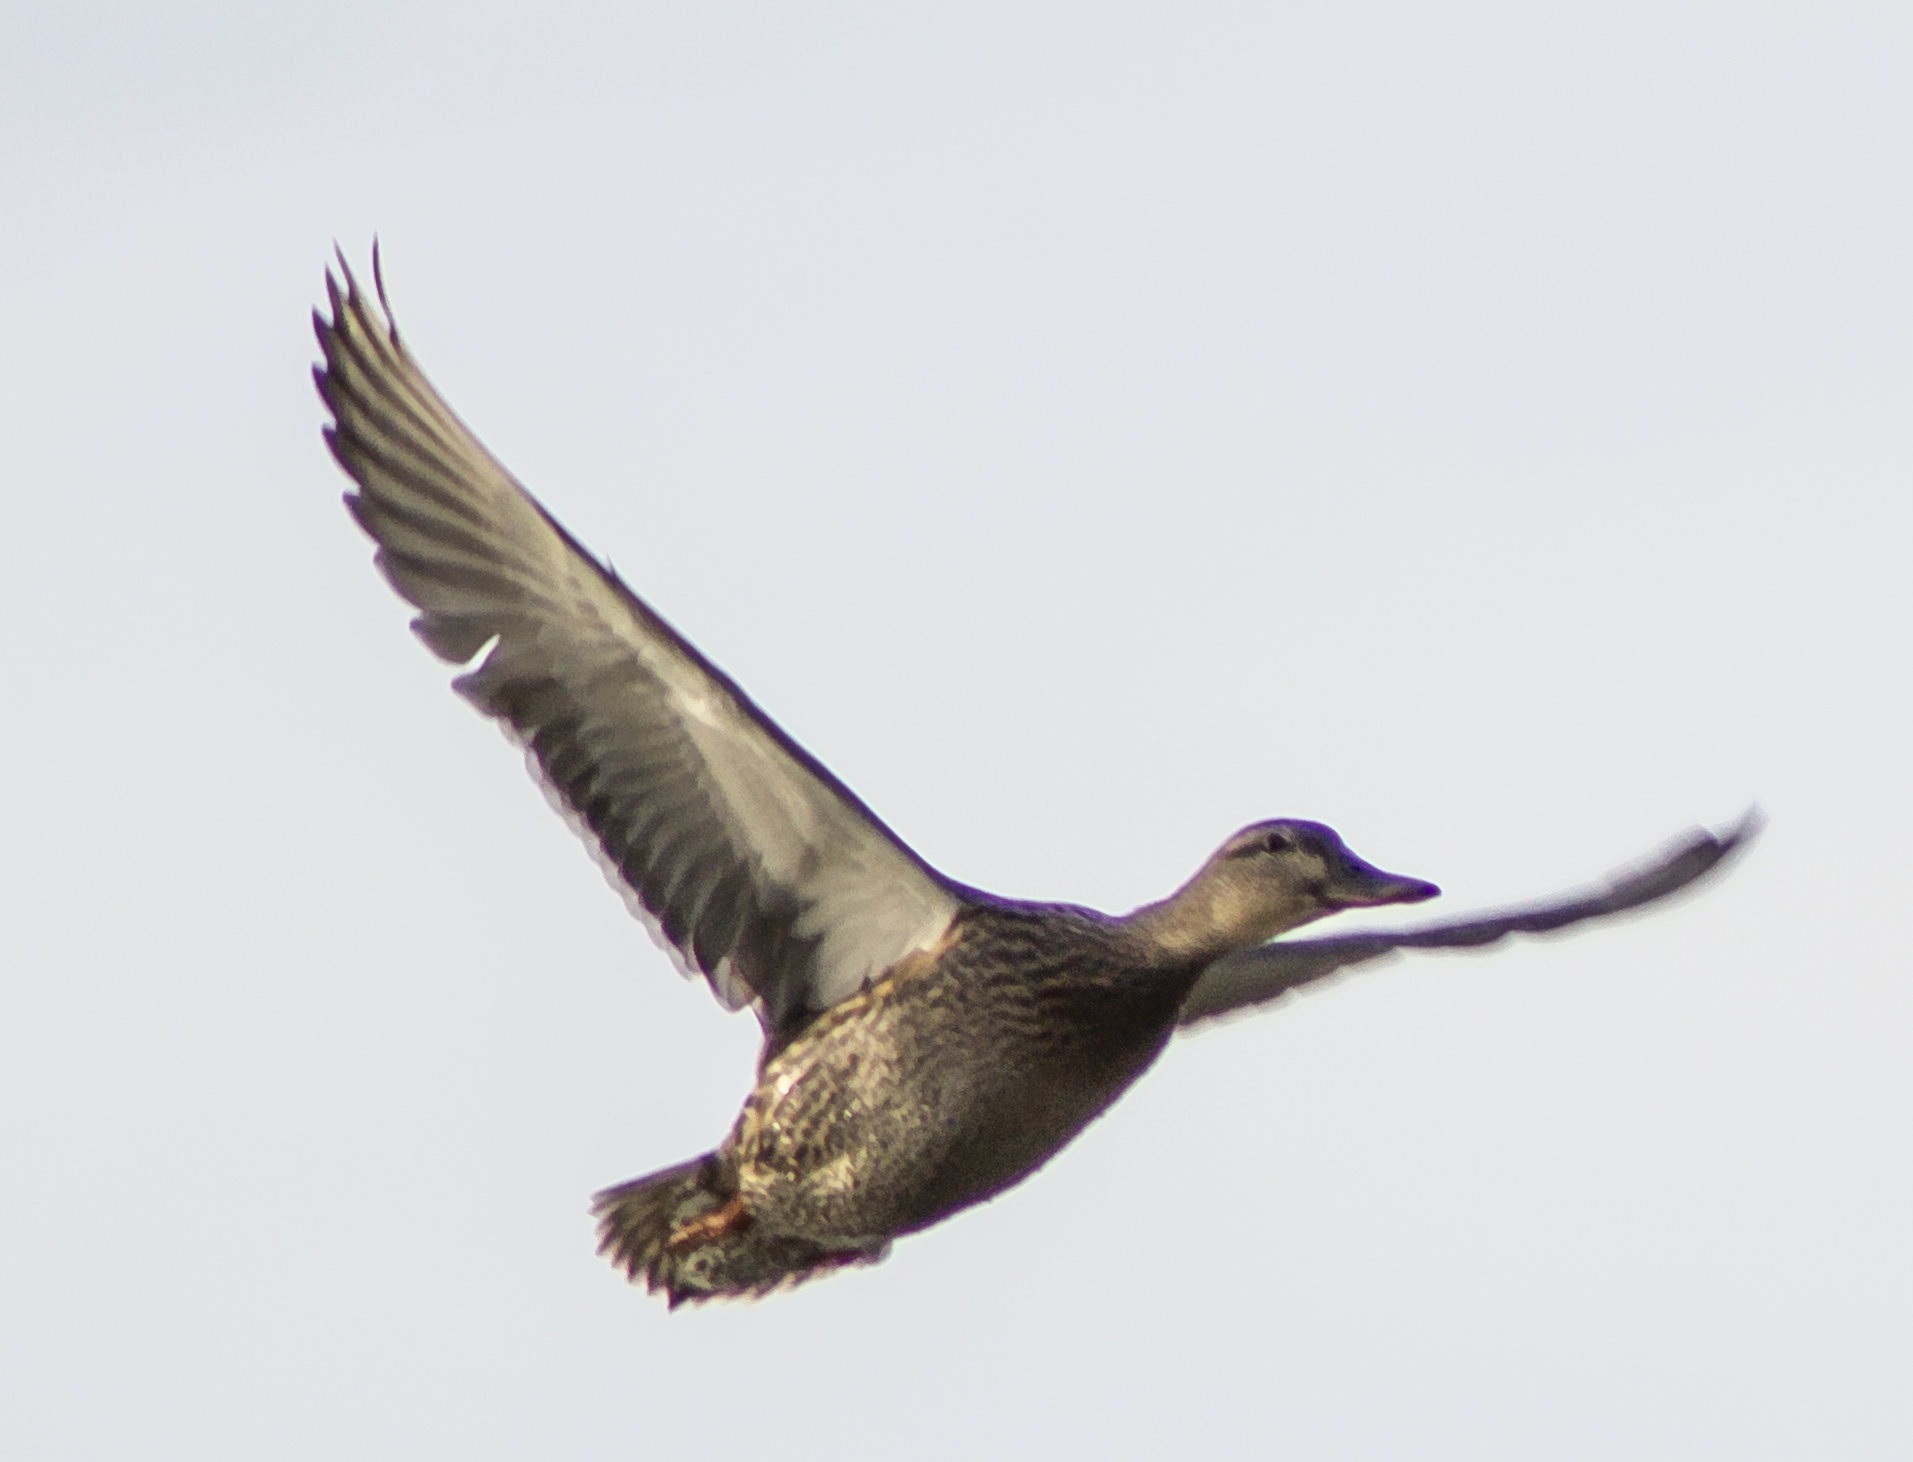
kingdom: Animalia
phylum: Chordata
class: Aves
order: Anseriformes
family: Anatidae
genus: Anas
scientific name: Anas platyrhynchos
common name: Mallard
